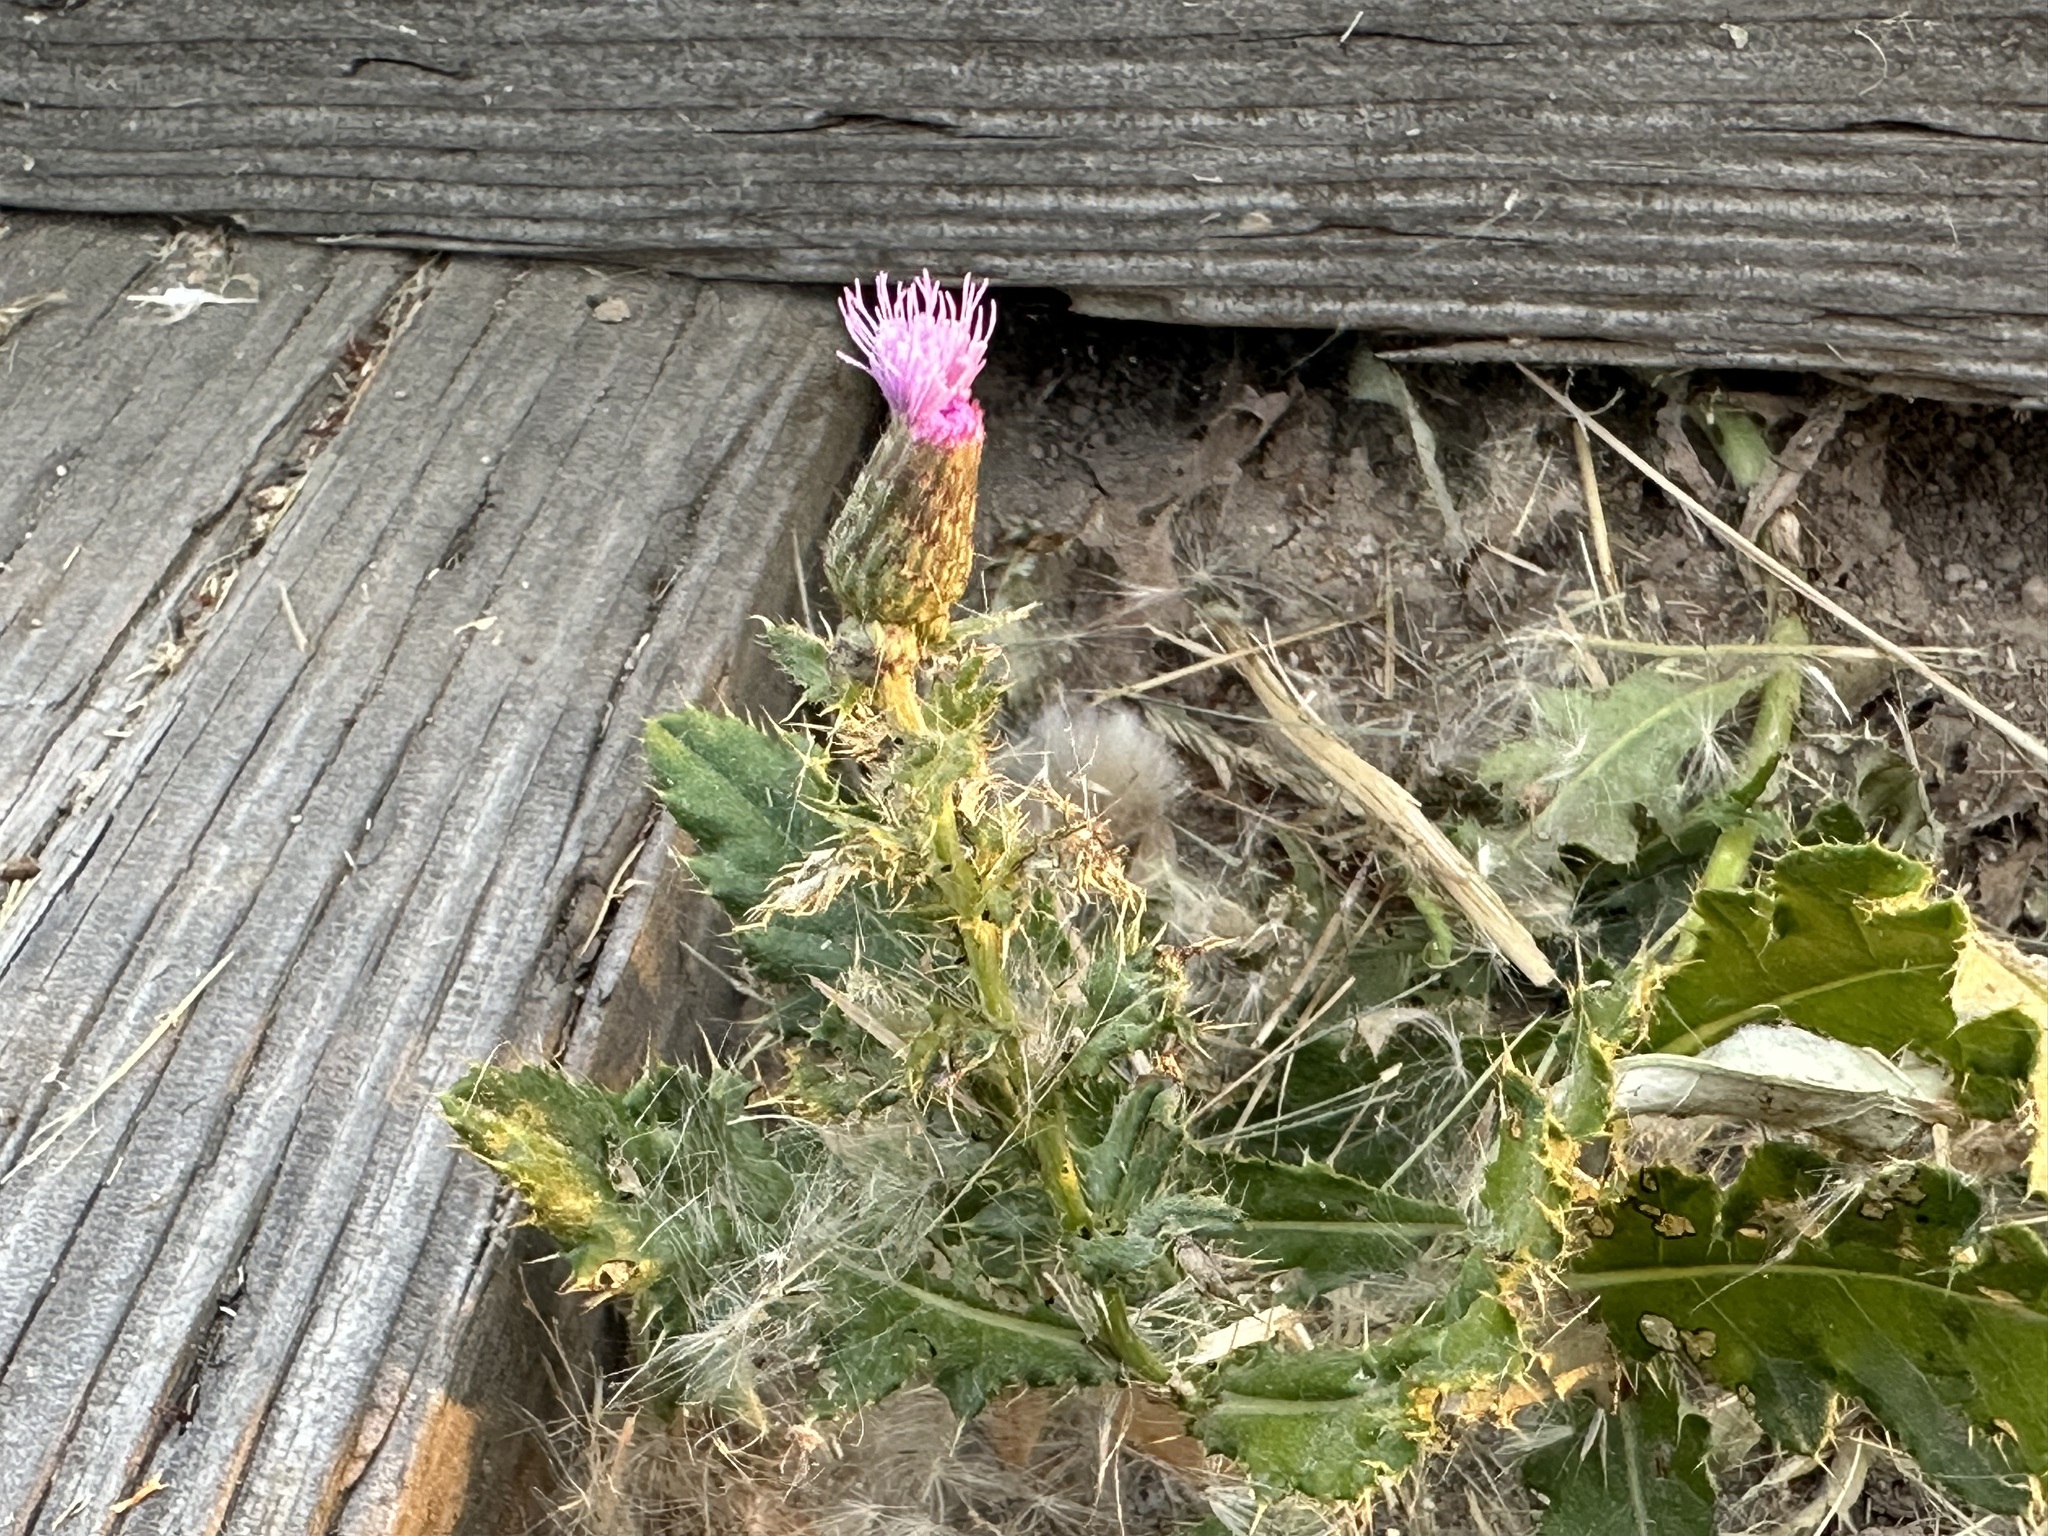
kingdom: Plantae
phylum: Tracheophyta
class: Magnoliopsida
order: Asterales
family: Asteraceae
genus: Cirsium
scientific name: Cirsium arvense
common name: Creeping thistle
